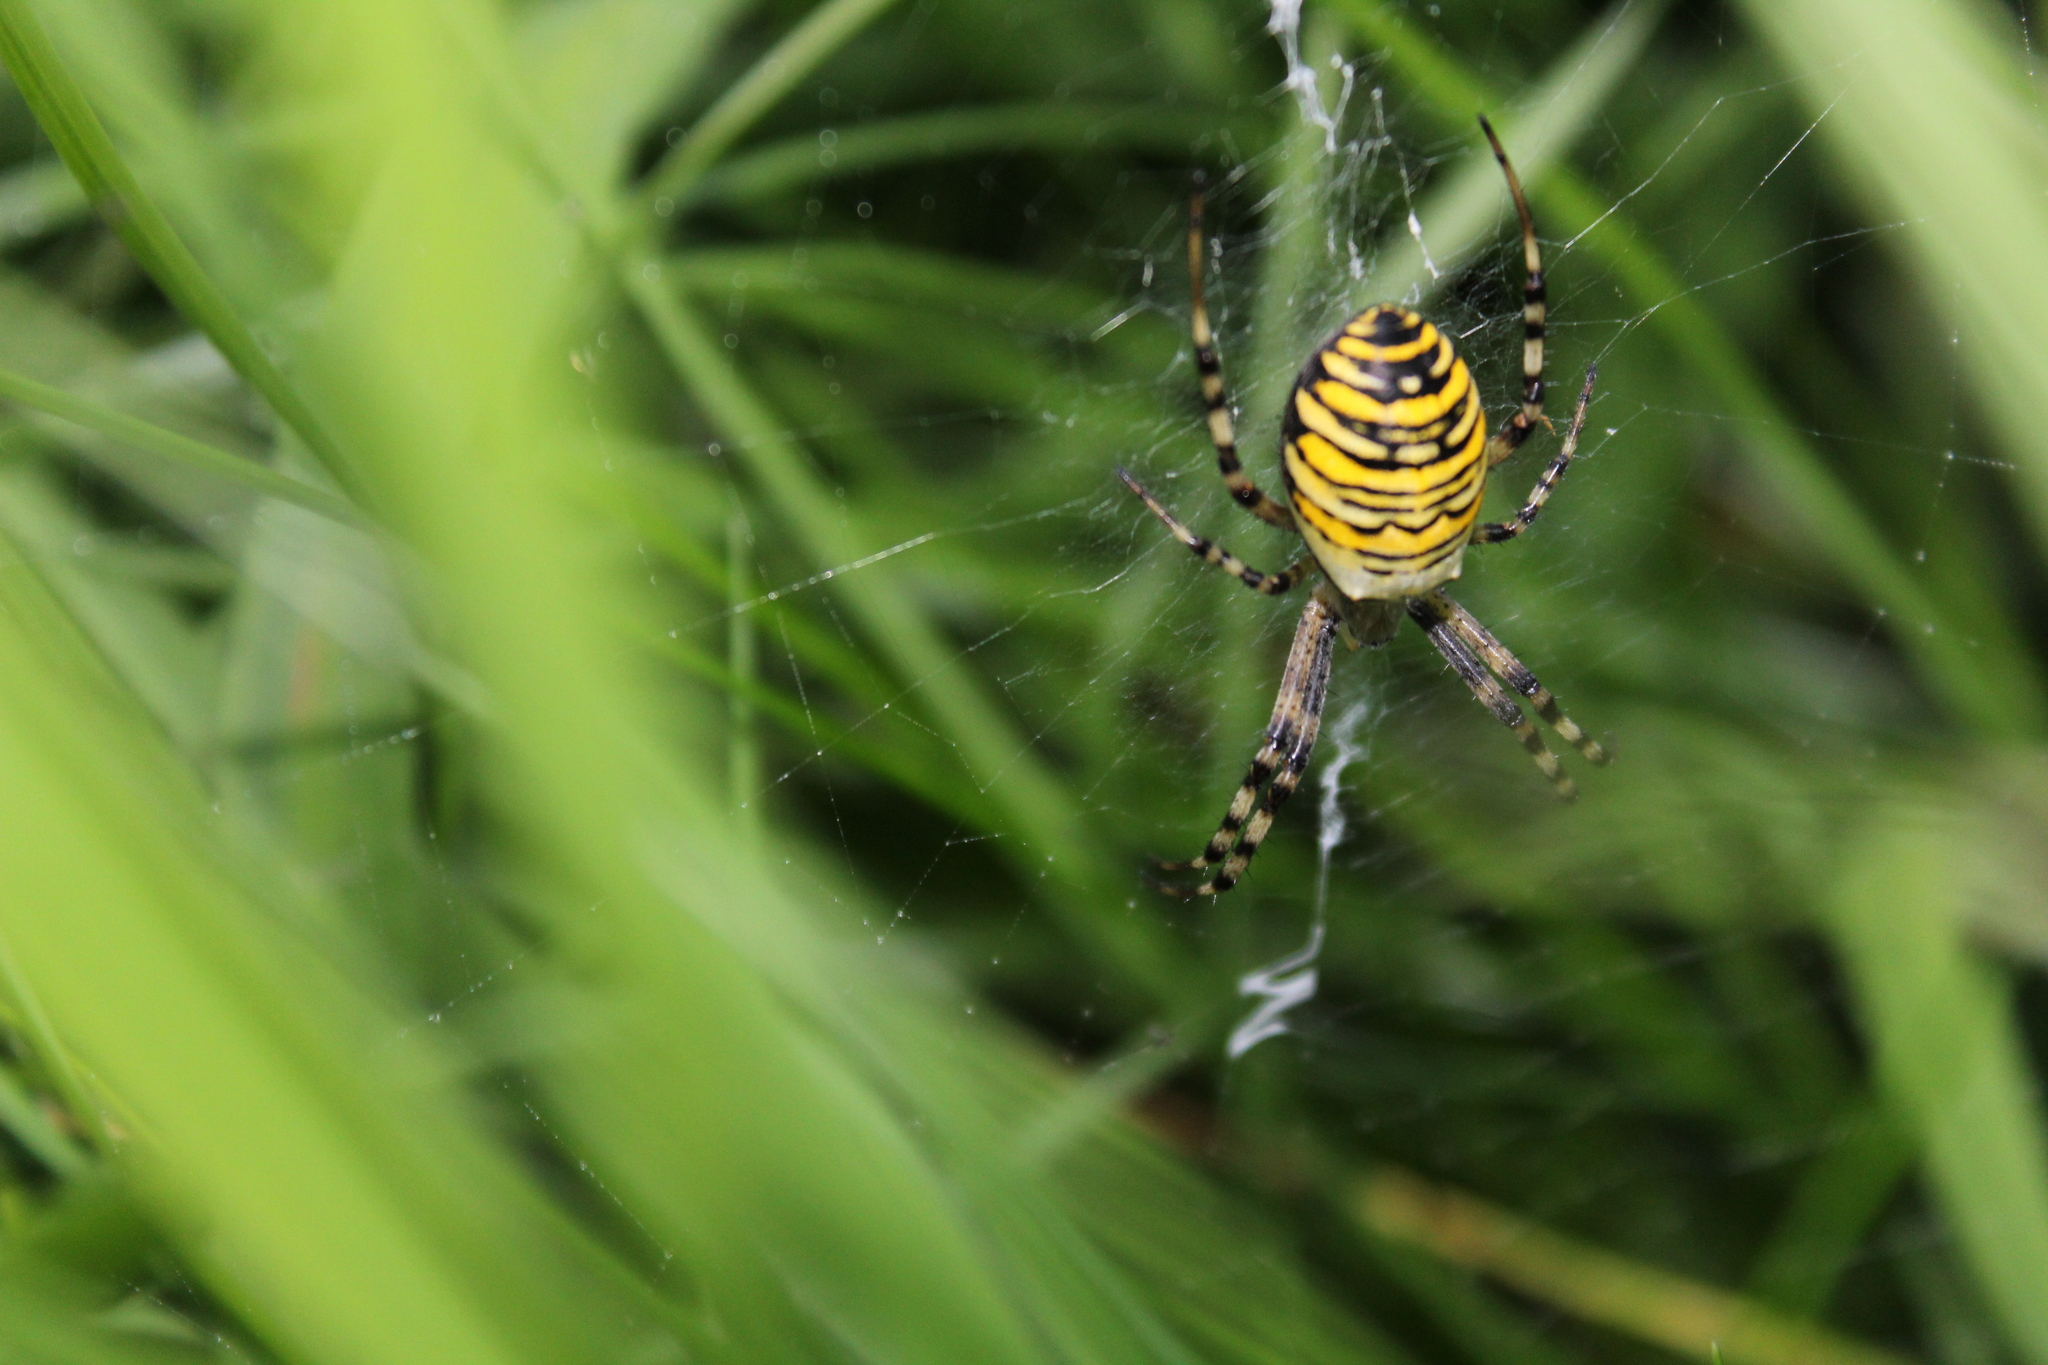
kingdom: Animalia
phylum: Arthropoda
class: Arachnida
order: Araneae
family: Araneidae
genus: Argiope
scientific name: Argiope bruennichi
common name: Wasp spider
